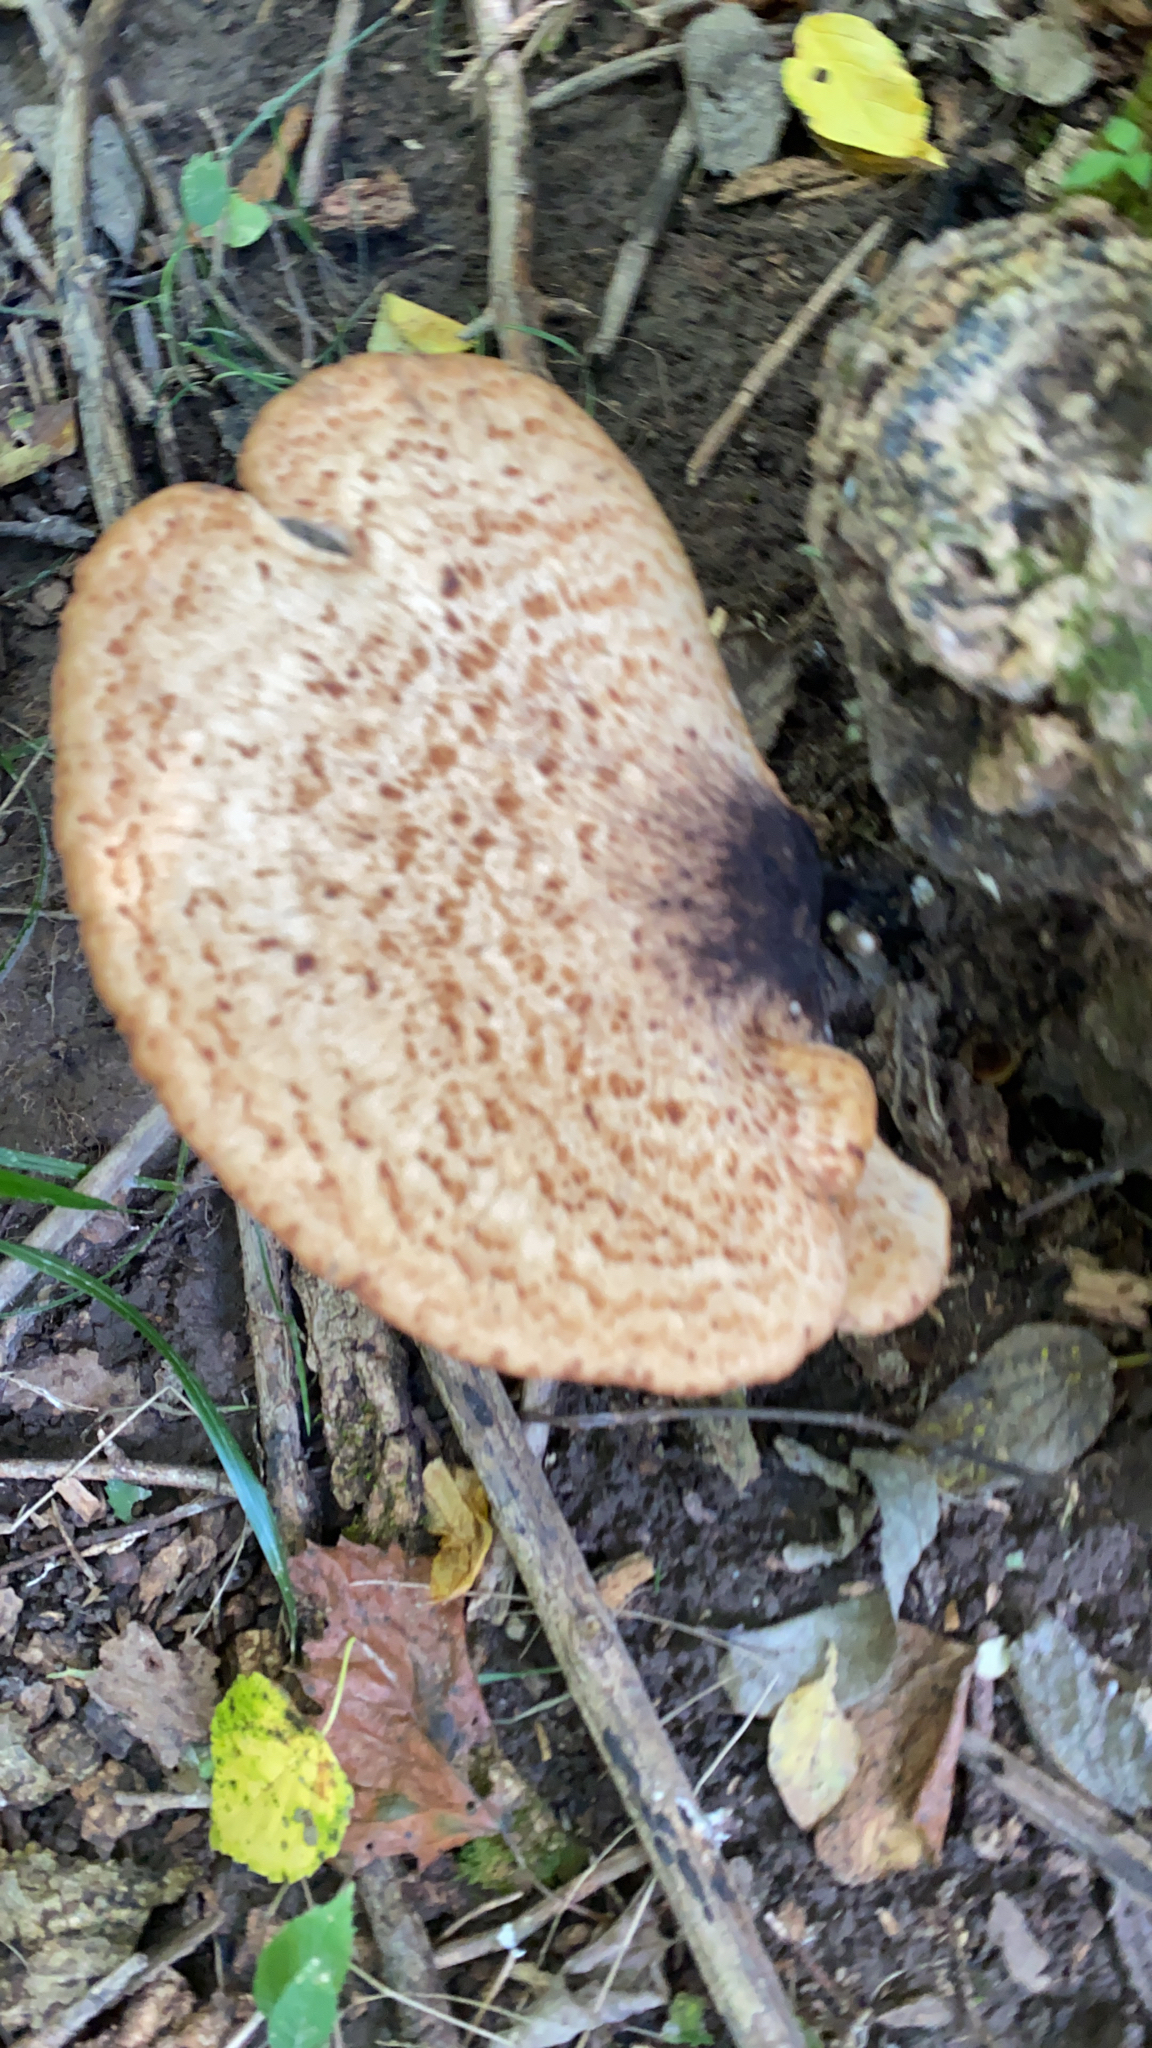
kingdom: Fungi
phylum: Basidiomycota
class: Agaricomycetes
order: Polyporales
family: Polyporaceae
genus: Cerioporus
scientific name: Cerioporus squamosus
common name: Dryad's saddle
